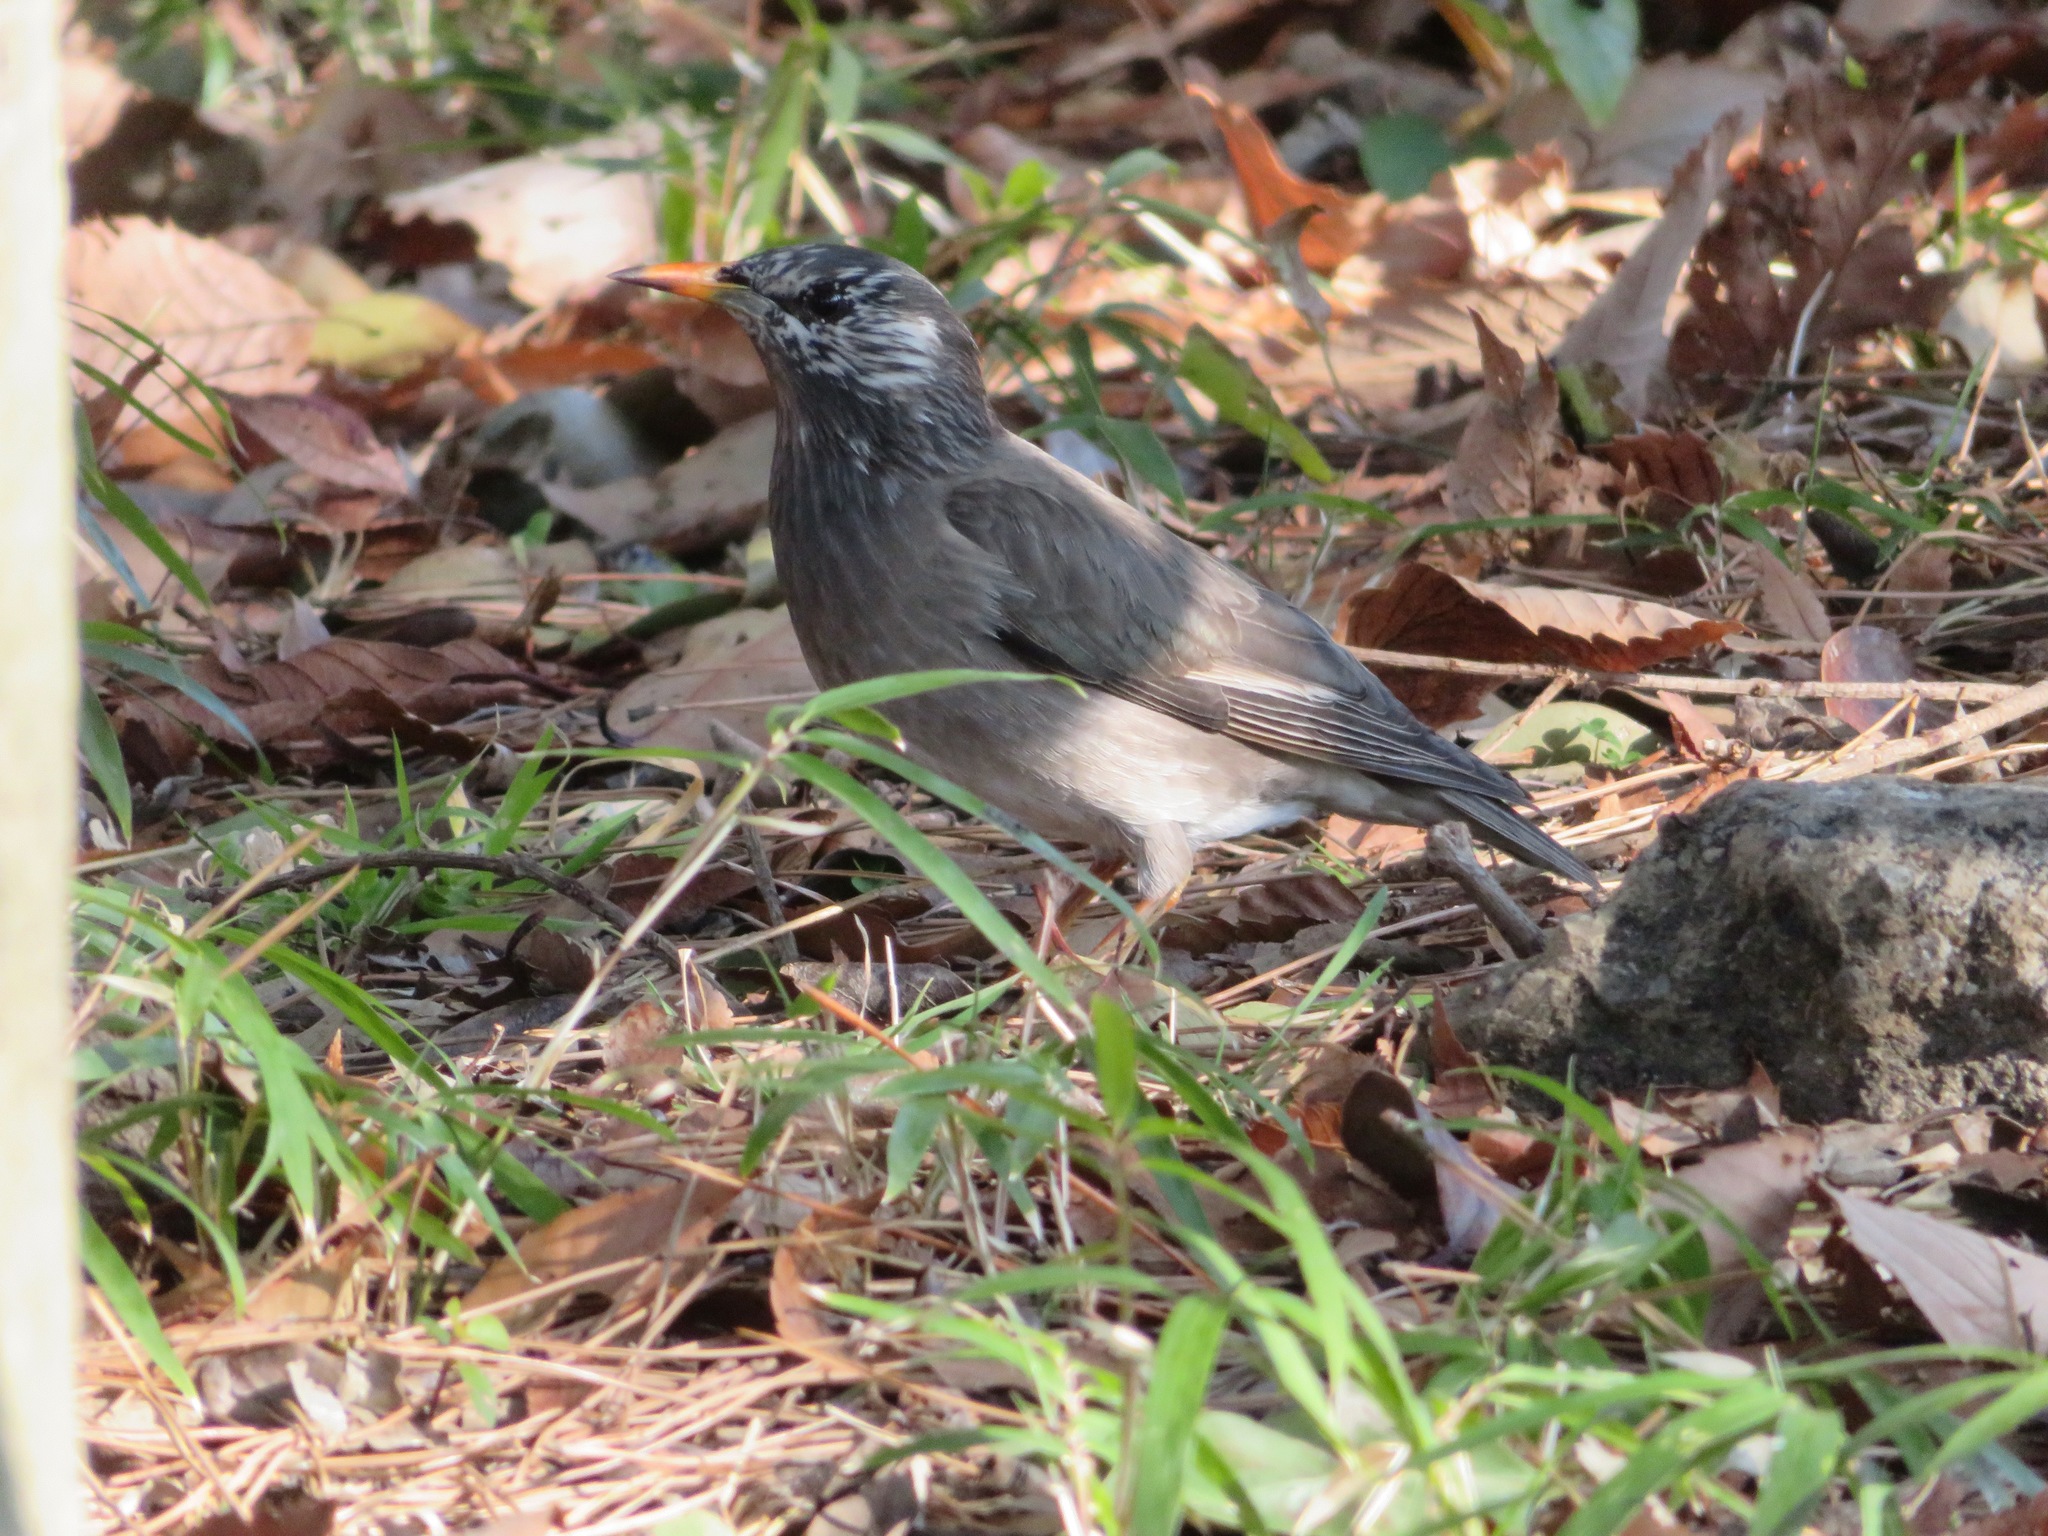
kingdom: Animalia
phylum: Chordata
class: Aves
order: Passeriformes
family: Sturnidae
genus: Spodiopsar
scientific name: Spodiopsar cineraceus
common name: White-cheeked starling
